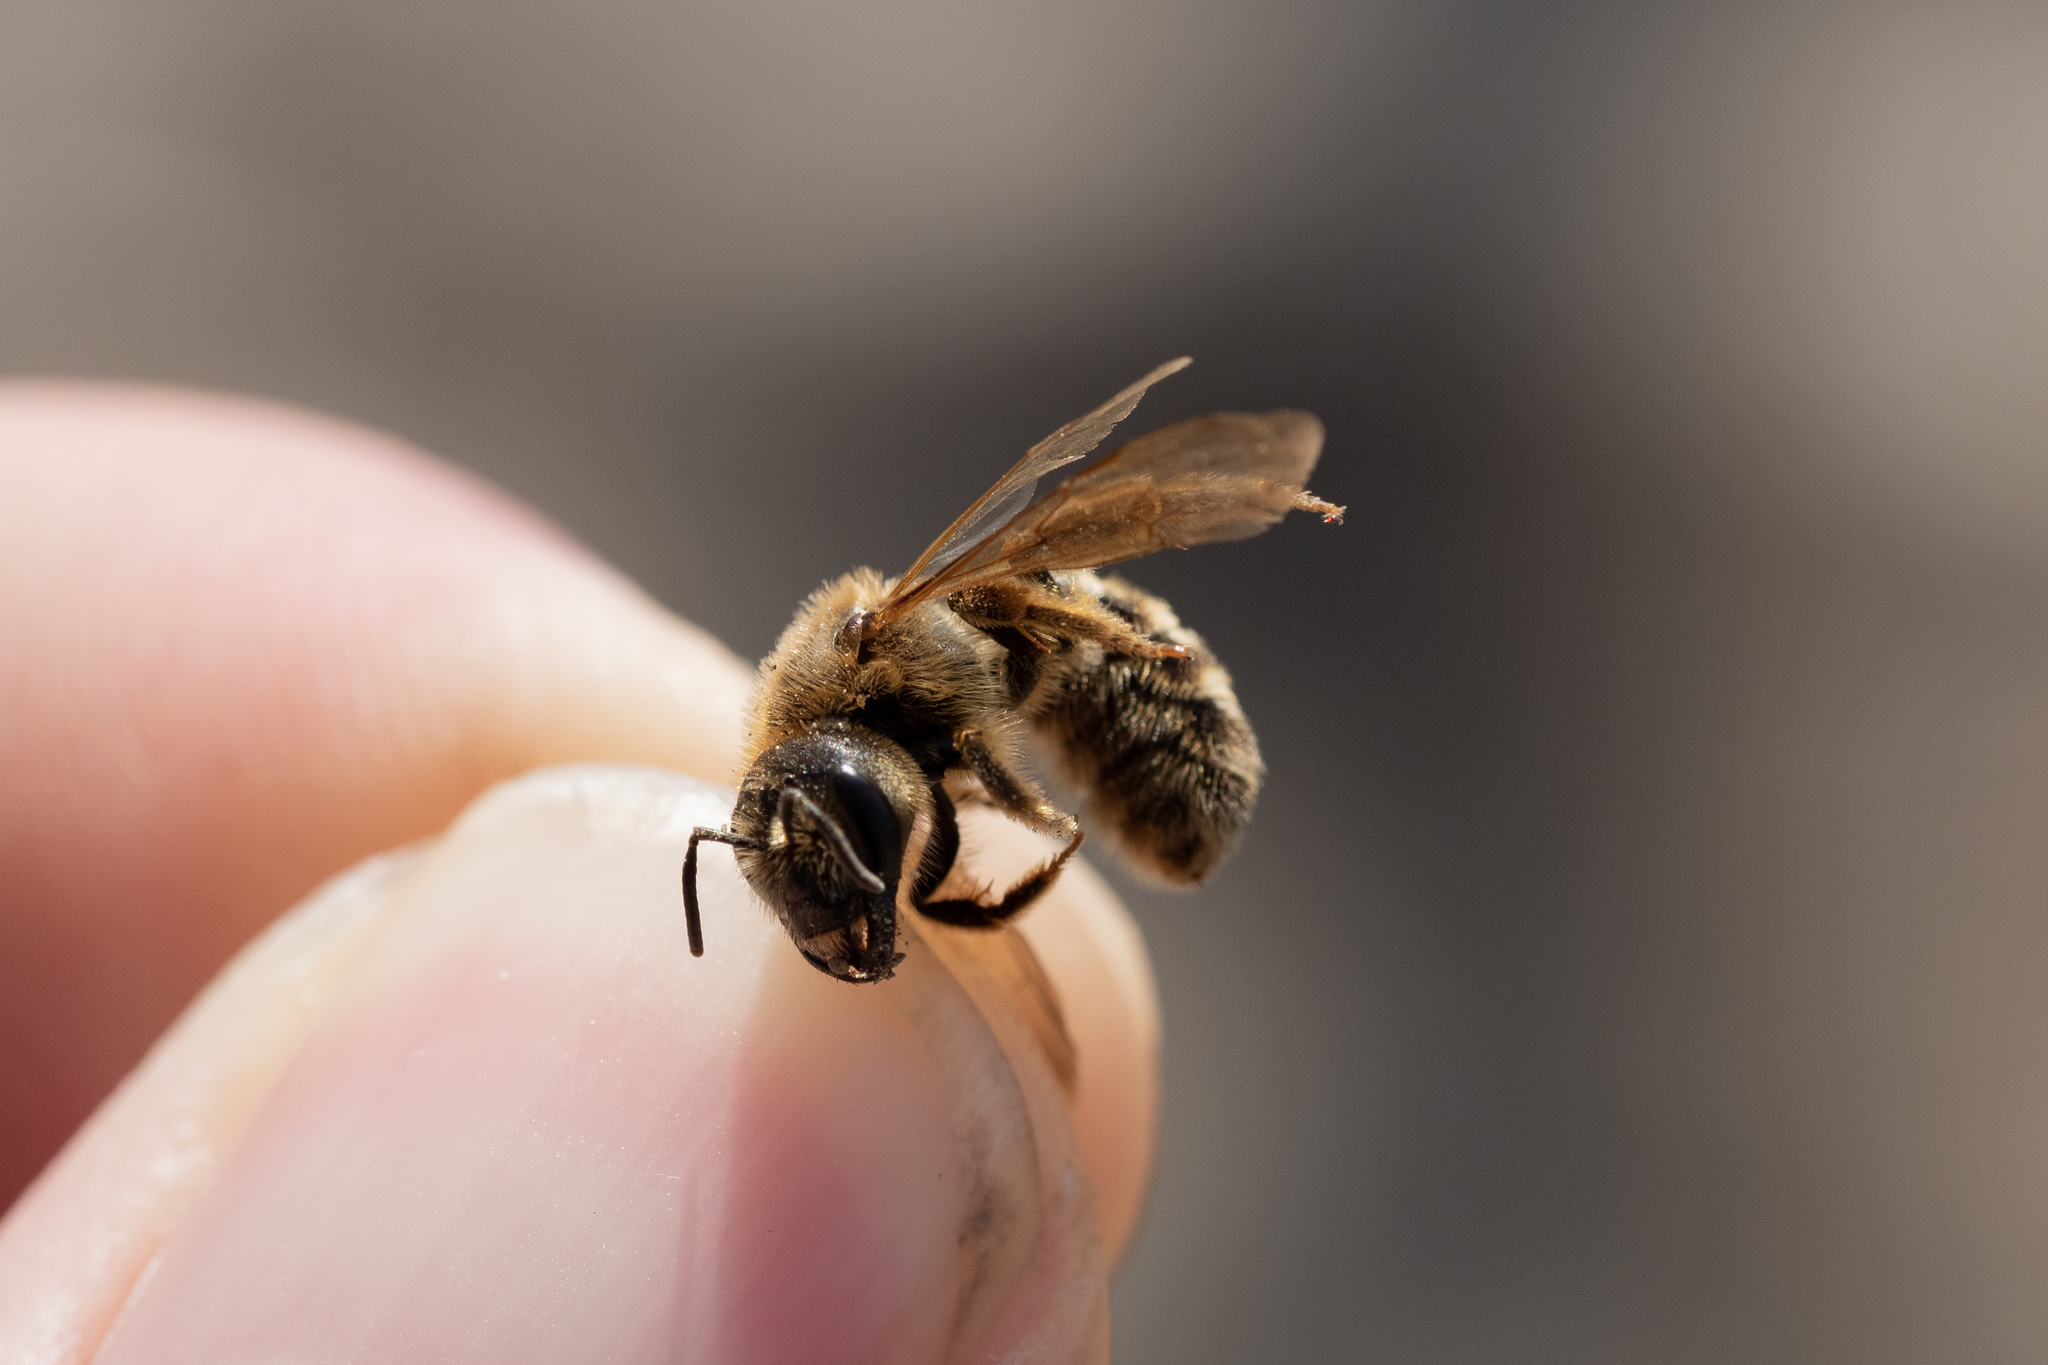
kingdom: Animalia
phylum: Arthropoda
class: Insecta
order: Hymenoptera
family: Halictidae
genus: Halictus
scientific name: Halictus scabiosae
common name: Great banded furrow bee
